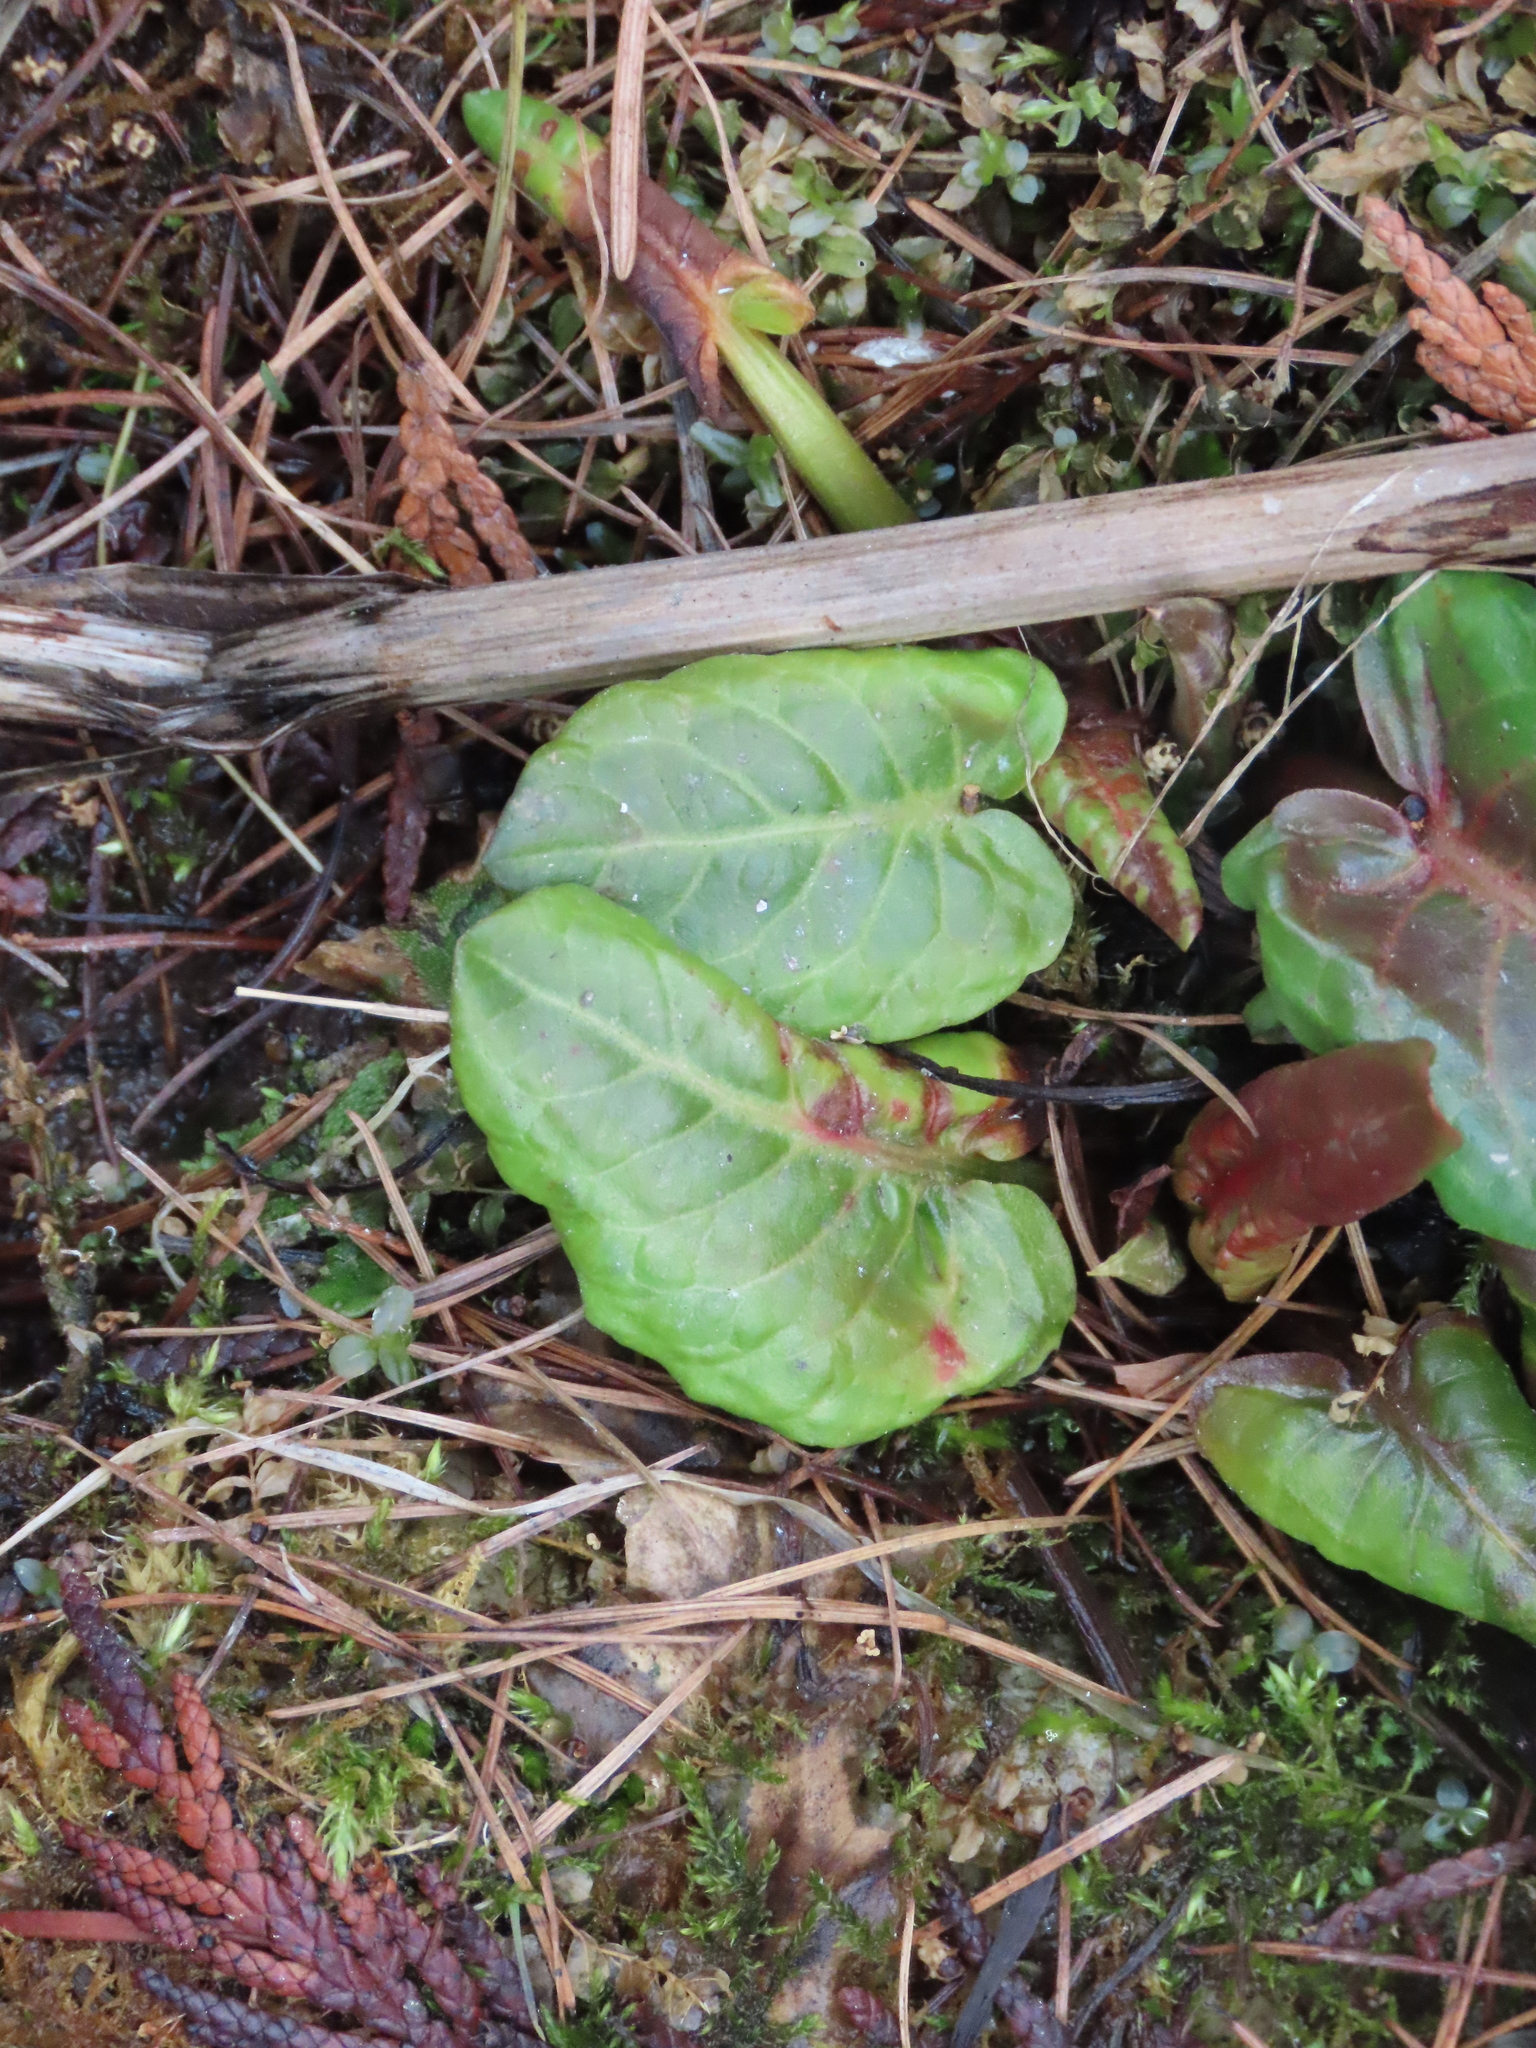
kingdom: Plantae
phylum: Tracheophyta
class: Magnoliopsida
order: Caryophyllales
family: Polygonaceae
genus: Rumex
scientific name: Rumex obtusifolius
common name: Bitter dock
